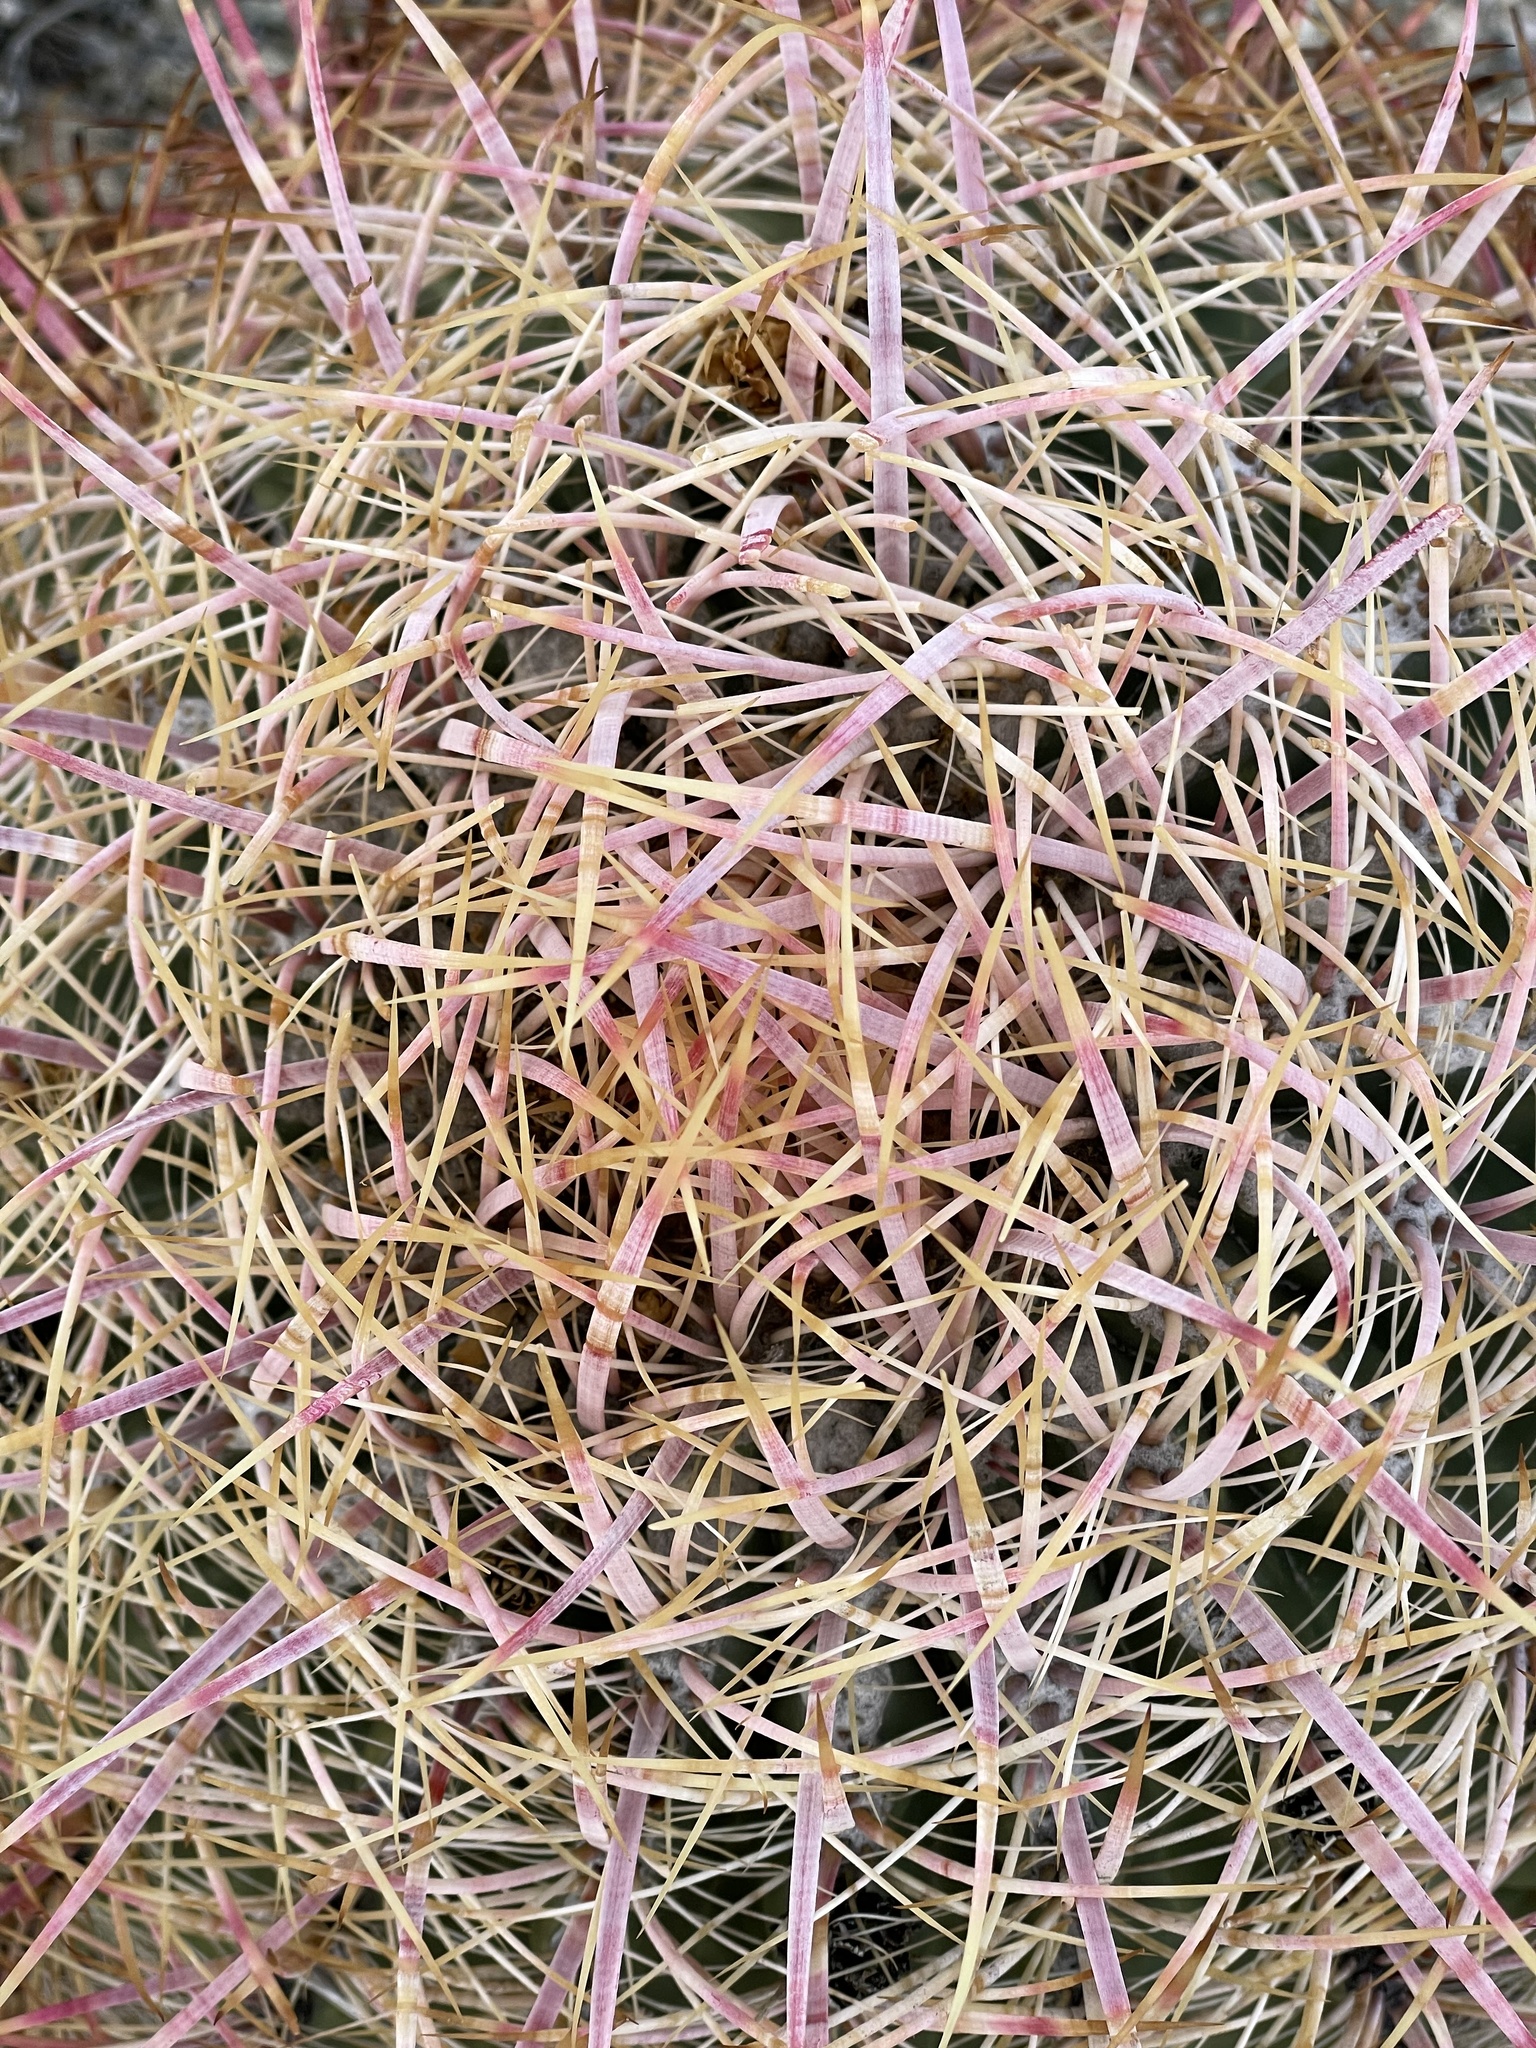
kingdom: Plantae
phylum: Tracheophyta
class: Magnoliopsida
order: Caryophyllales
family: Cactaceae
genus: Ferocactus
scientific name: Ferocactus cylindraceus
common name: California barrel cactus
